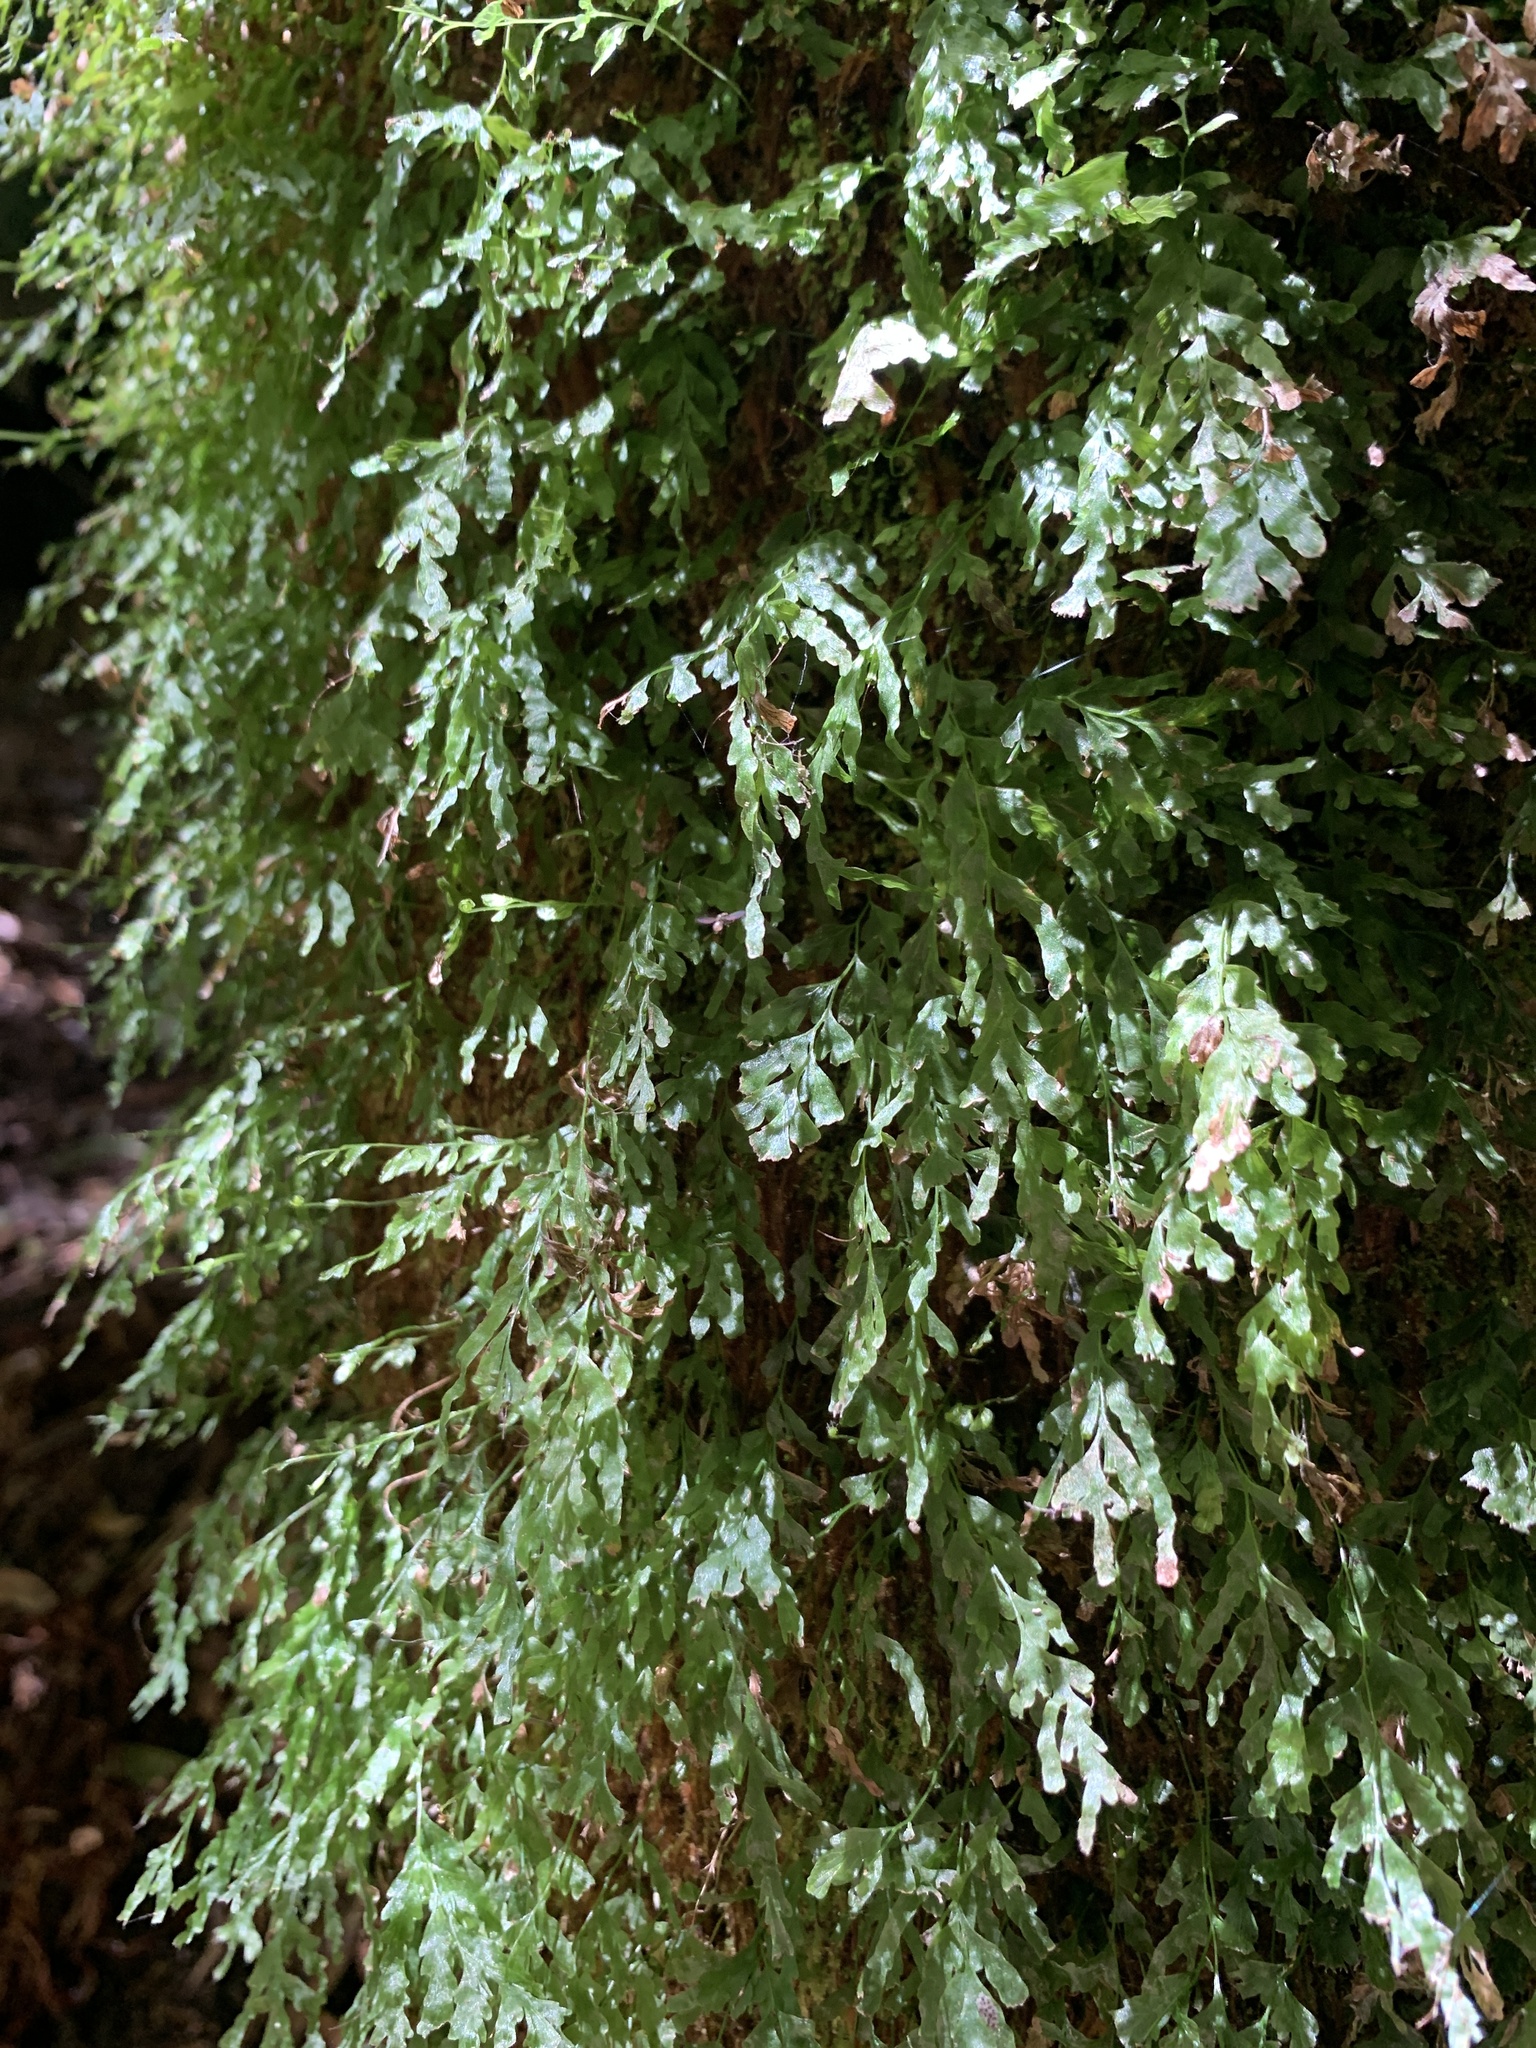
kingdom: Plantae
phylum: Tracheophyta
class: Polypodiopsida
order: Hymenophyllales
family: Hymenophyllaceae
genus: Polyphlebium
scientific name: Polyphlebium venosum
